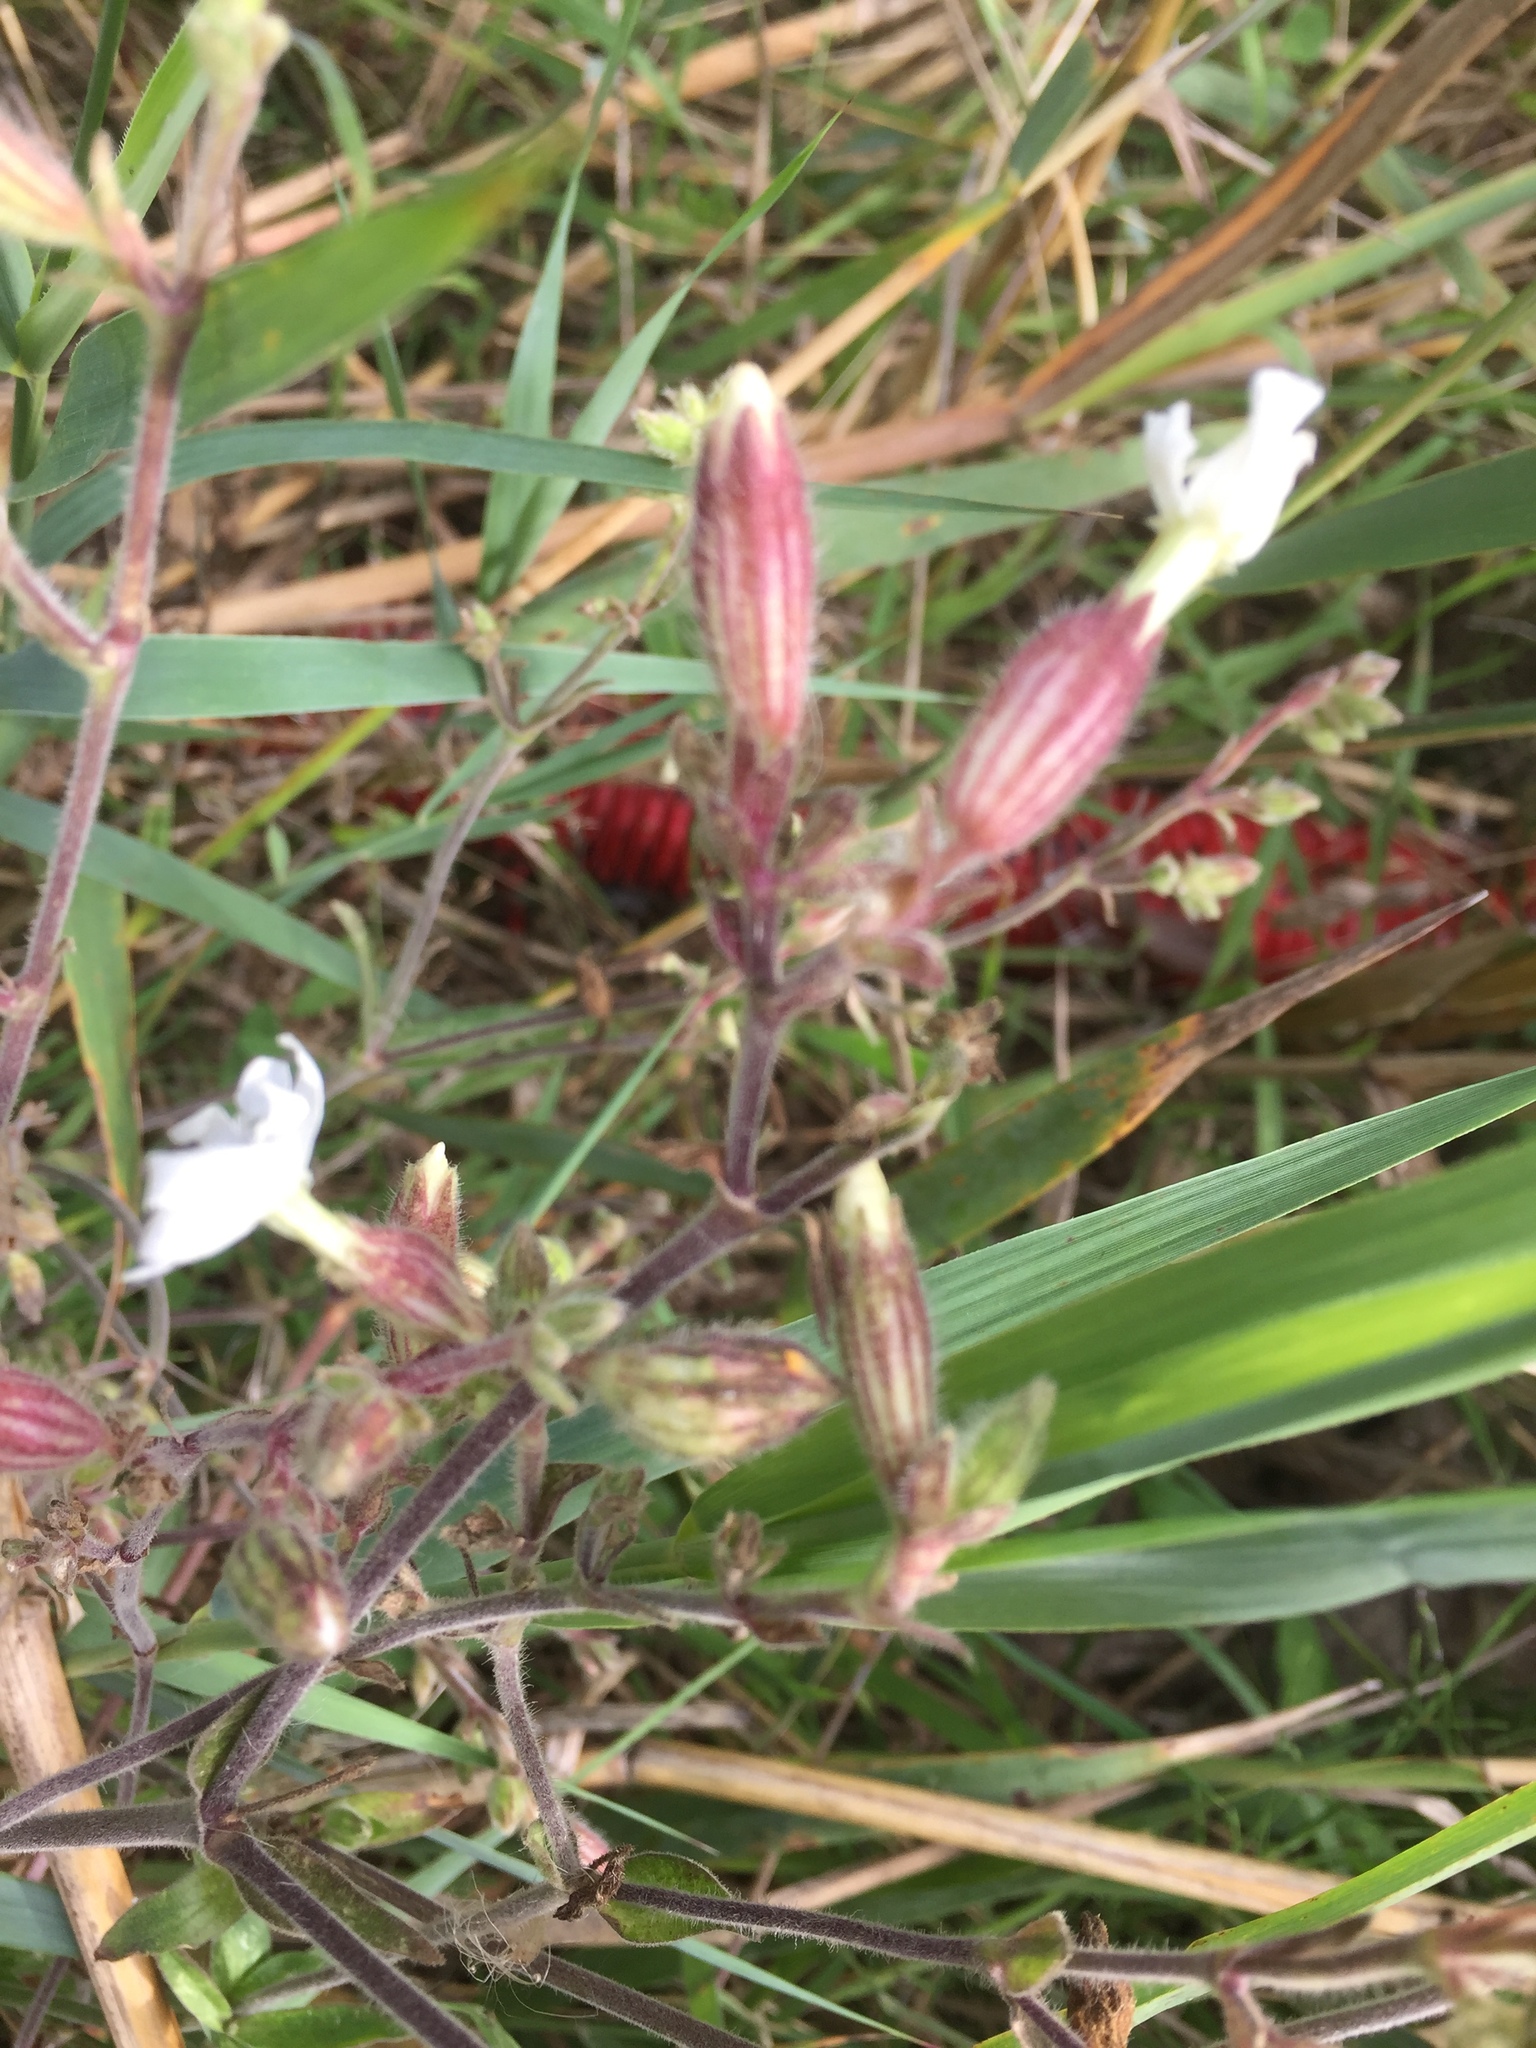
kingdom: Plantae
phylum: Tracheophyta
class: Magnoliopsida
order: Caryophyllales
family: Caryophyllaceae
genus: Silene
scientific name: Silene latifolia
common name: White campion
